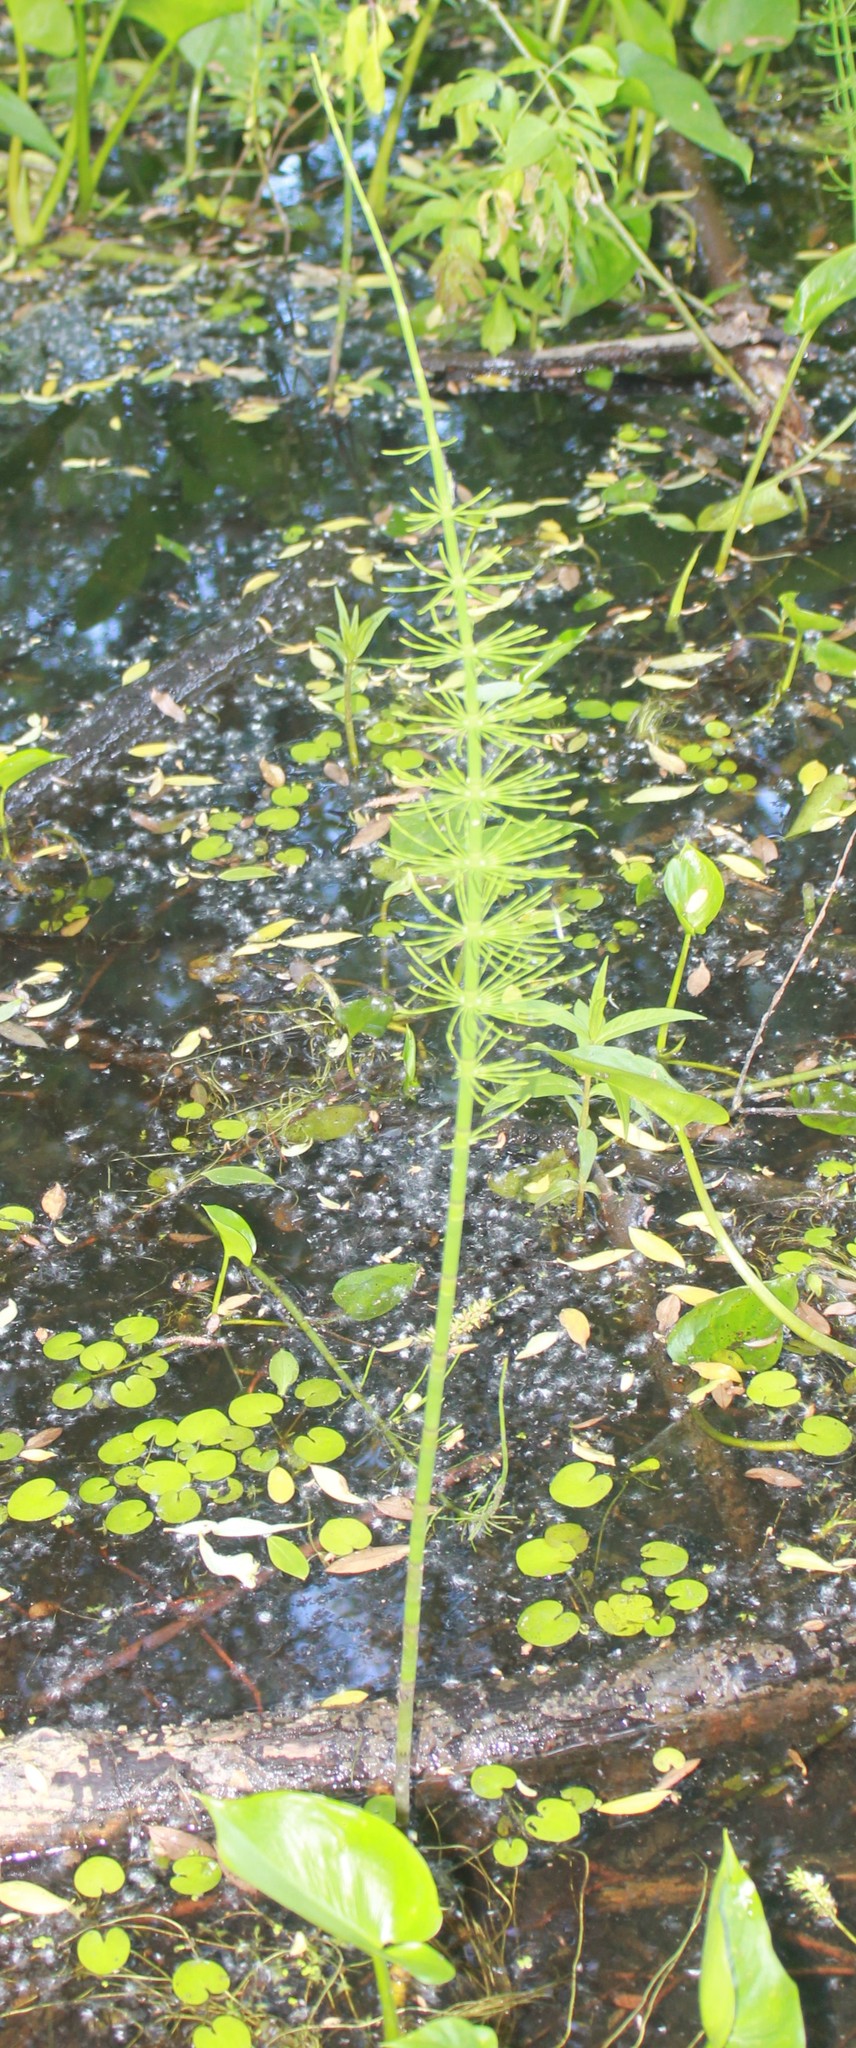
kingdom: Plantae
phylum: Tracheophyta
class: Polypodiopsida
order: Equisetales
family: Equisetaceae
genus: Equisetum
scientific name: Equisetum fluviatile
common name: Water horsetail
